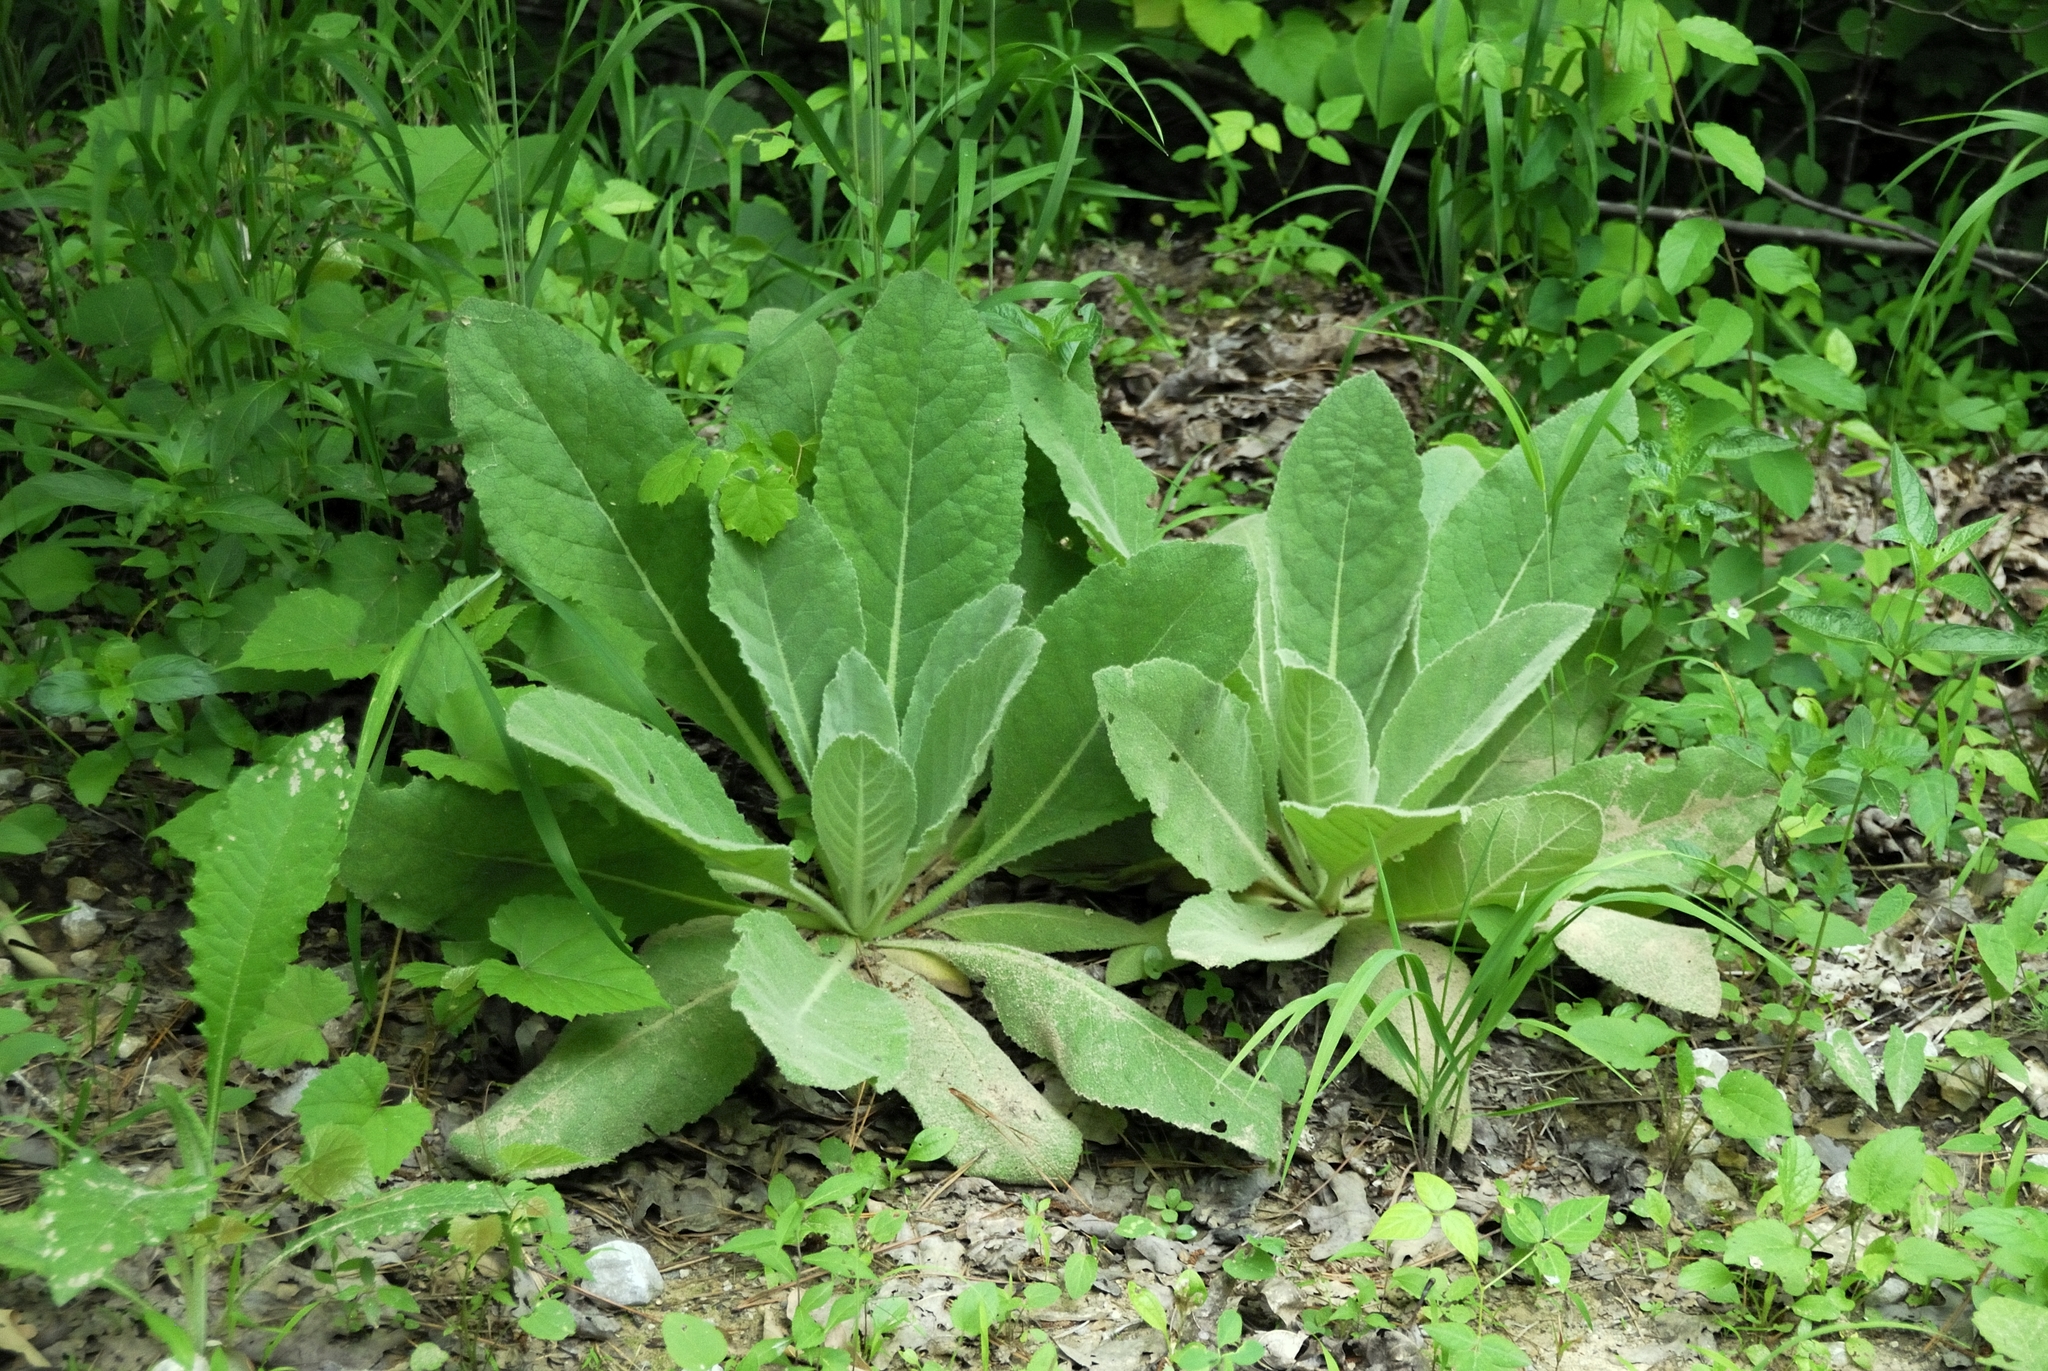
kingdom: Plantae
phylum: Tracheophyta
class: Magnoliopsida
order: Lamiales
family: Scrophulariaceae
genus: Verbascum
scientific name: Verbascum thapsus
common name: Common mullein
